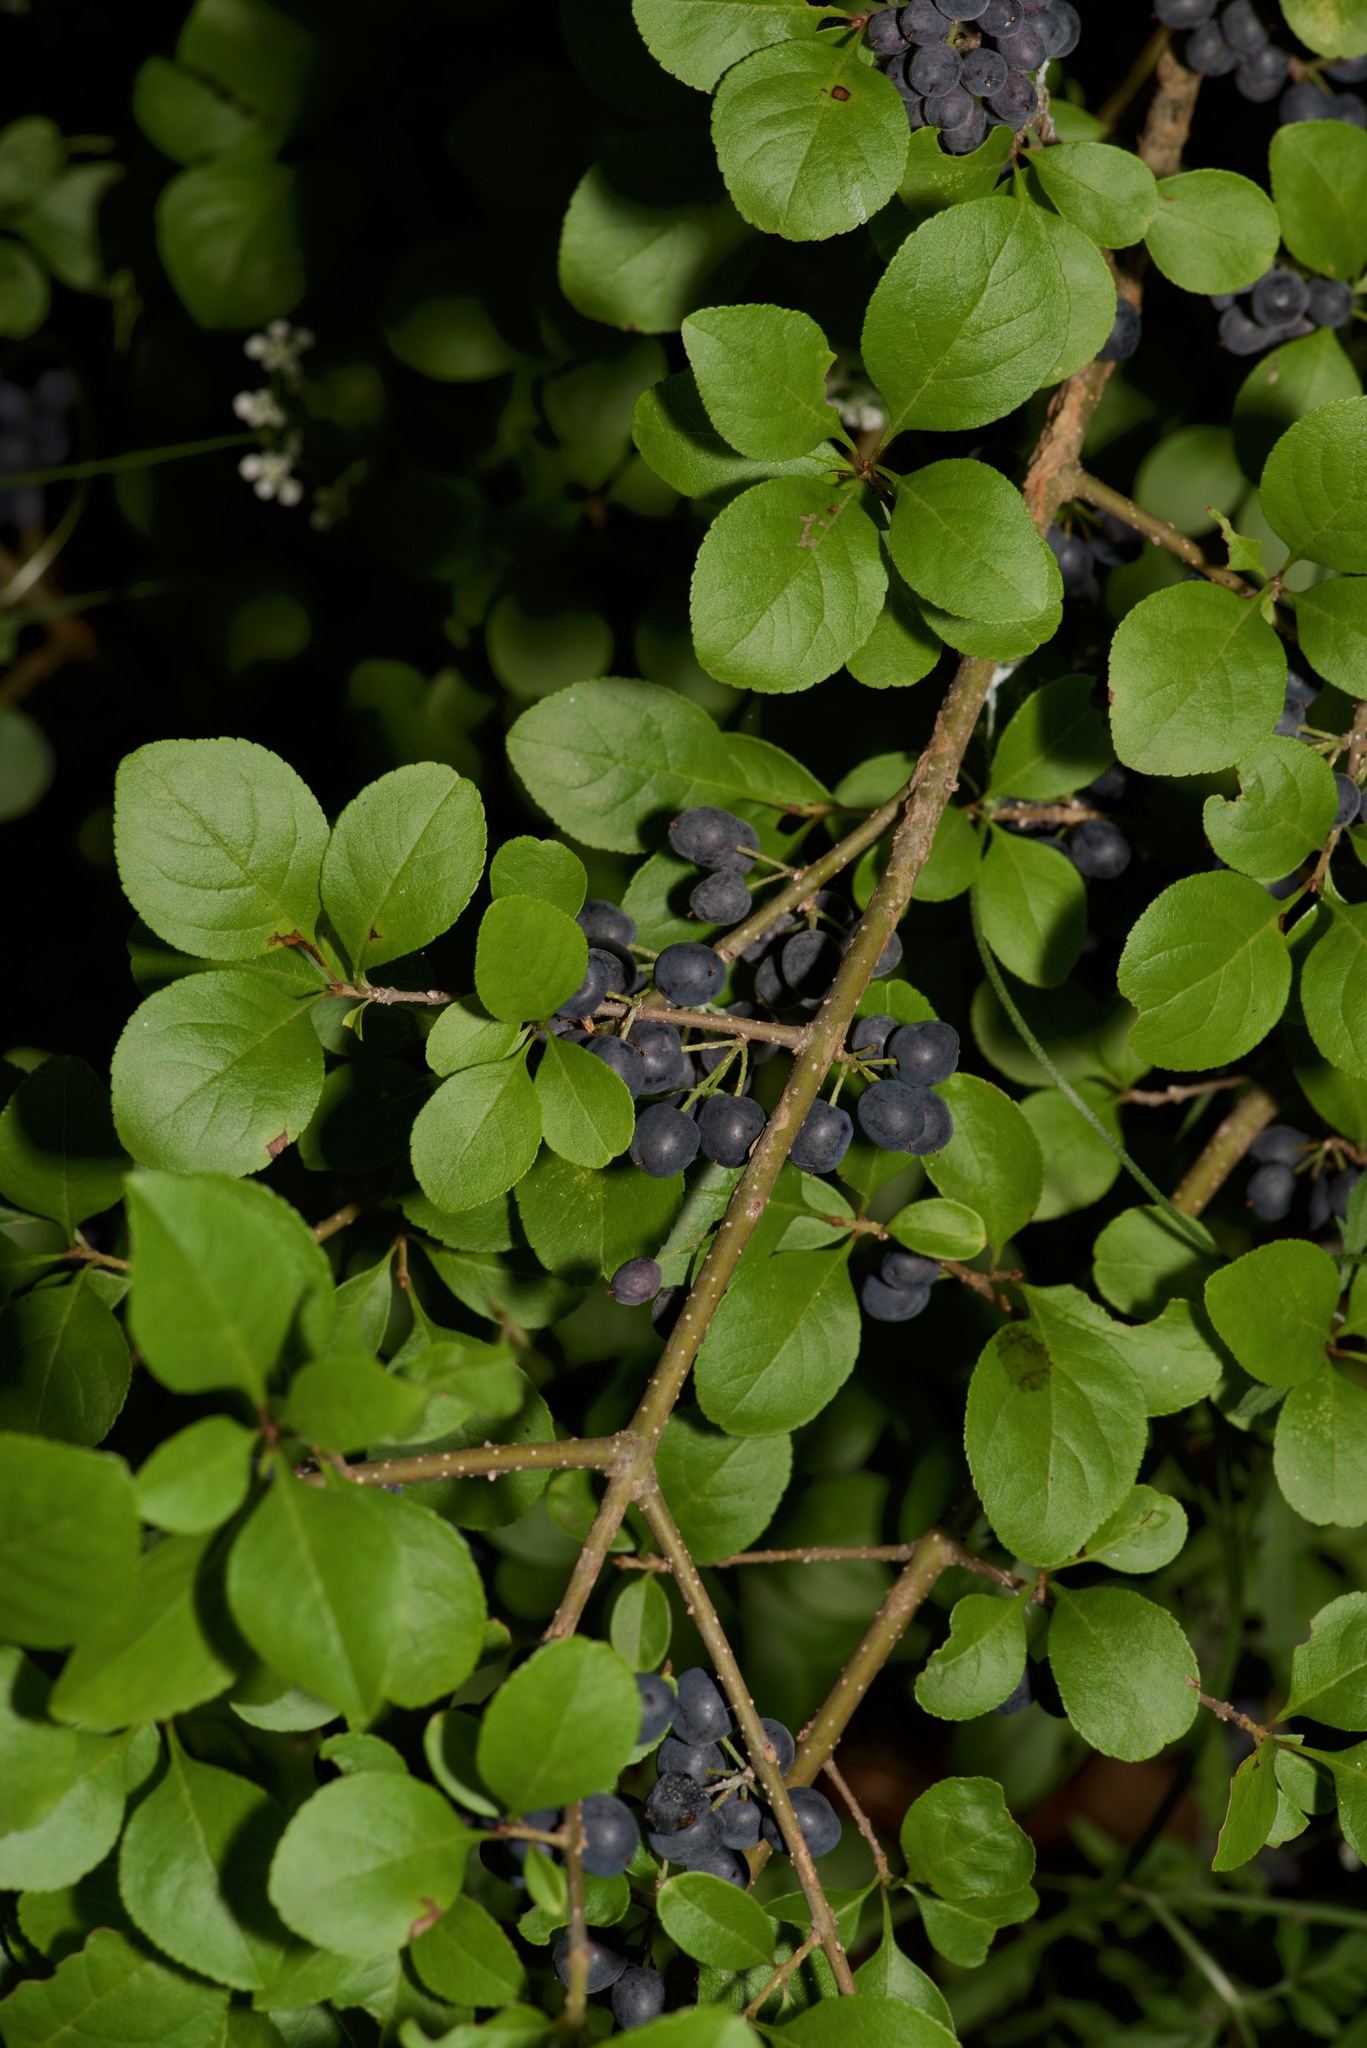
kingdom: Plantae
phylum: Tracheophyta
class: Magnoliopsida
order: Lamiales
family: Oleaceae
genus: Forestiera
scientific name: Forestiera pubescens
